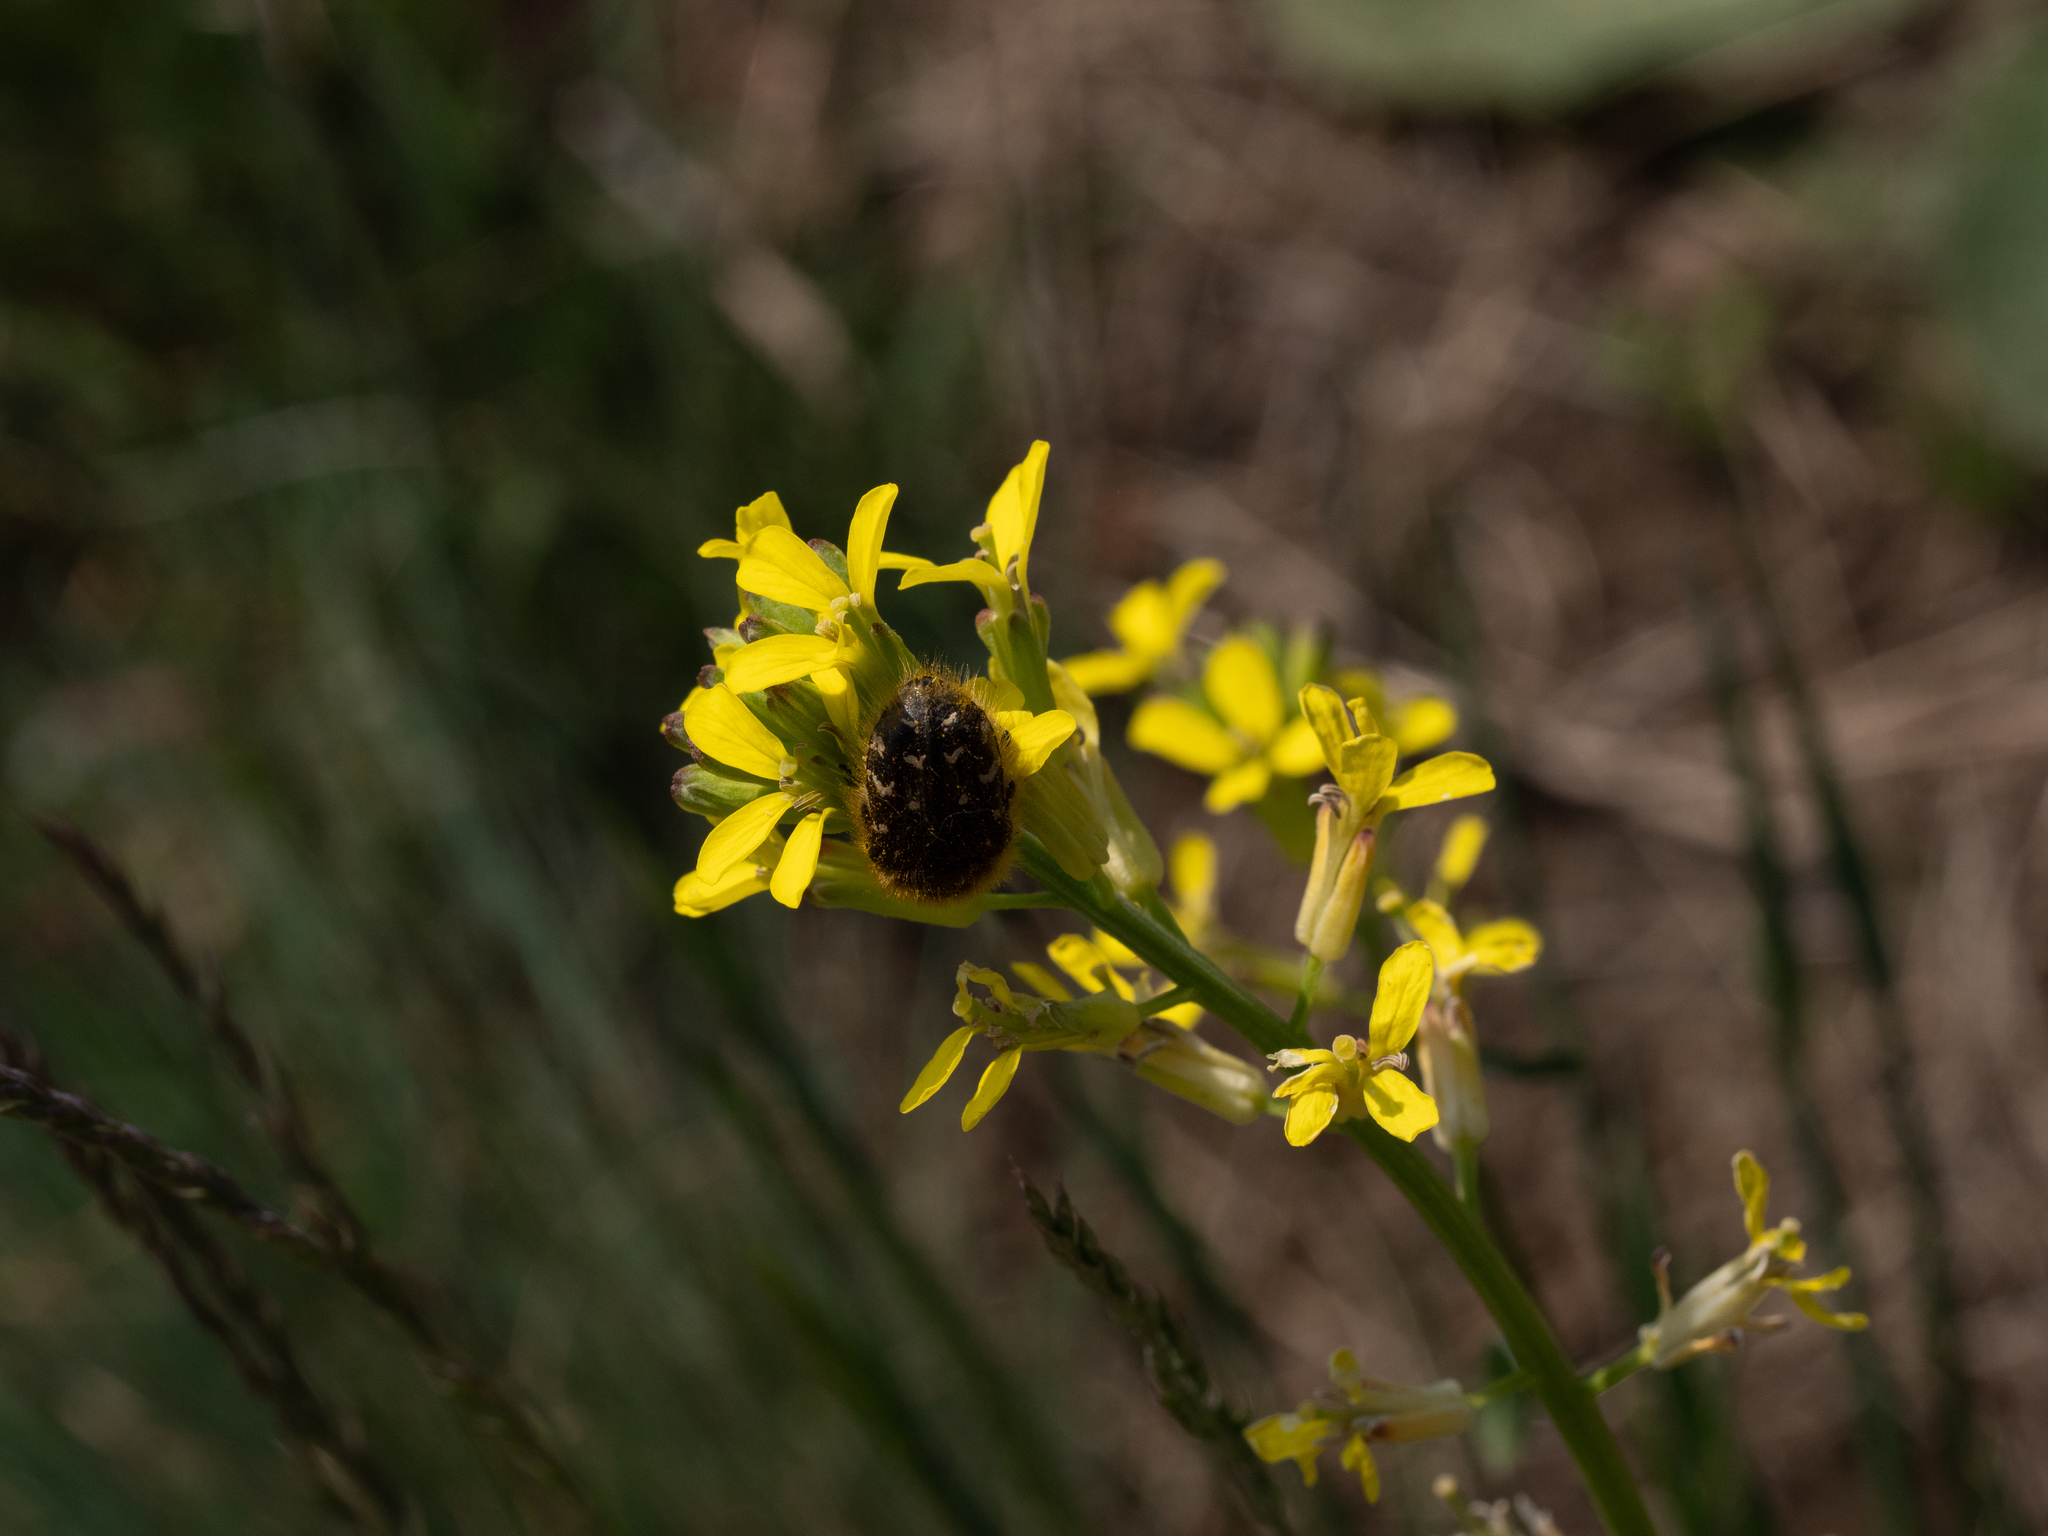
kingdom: Animalia
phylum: Arthropoda
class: Insecta
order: Coleoptera
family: Scarabaeidae
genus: Tropinota
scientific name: Tropinota hirta
